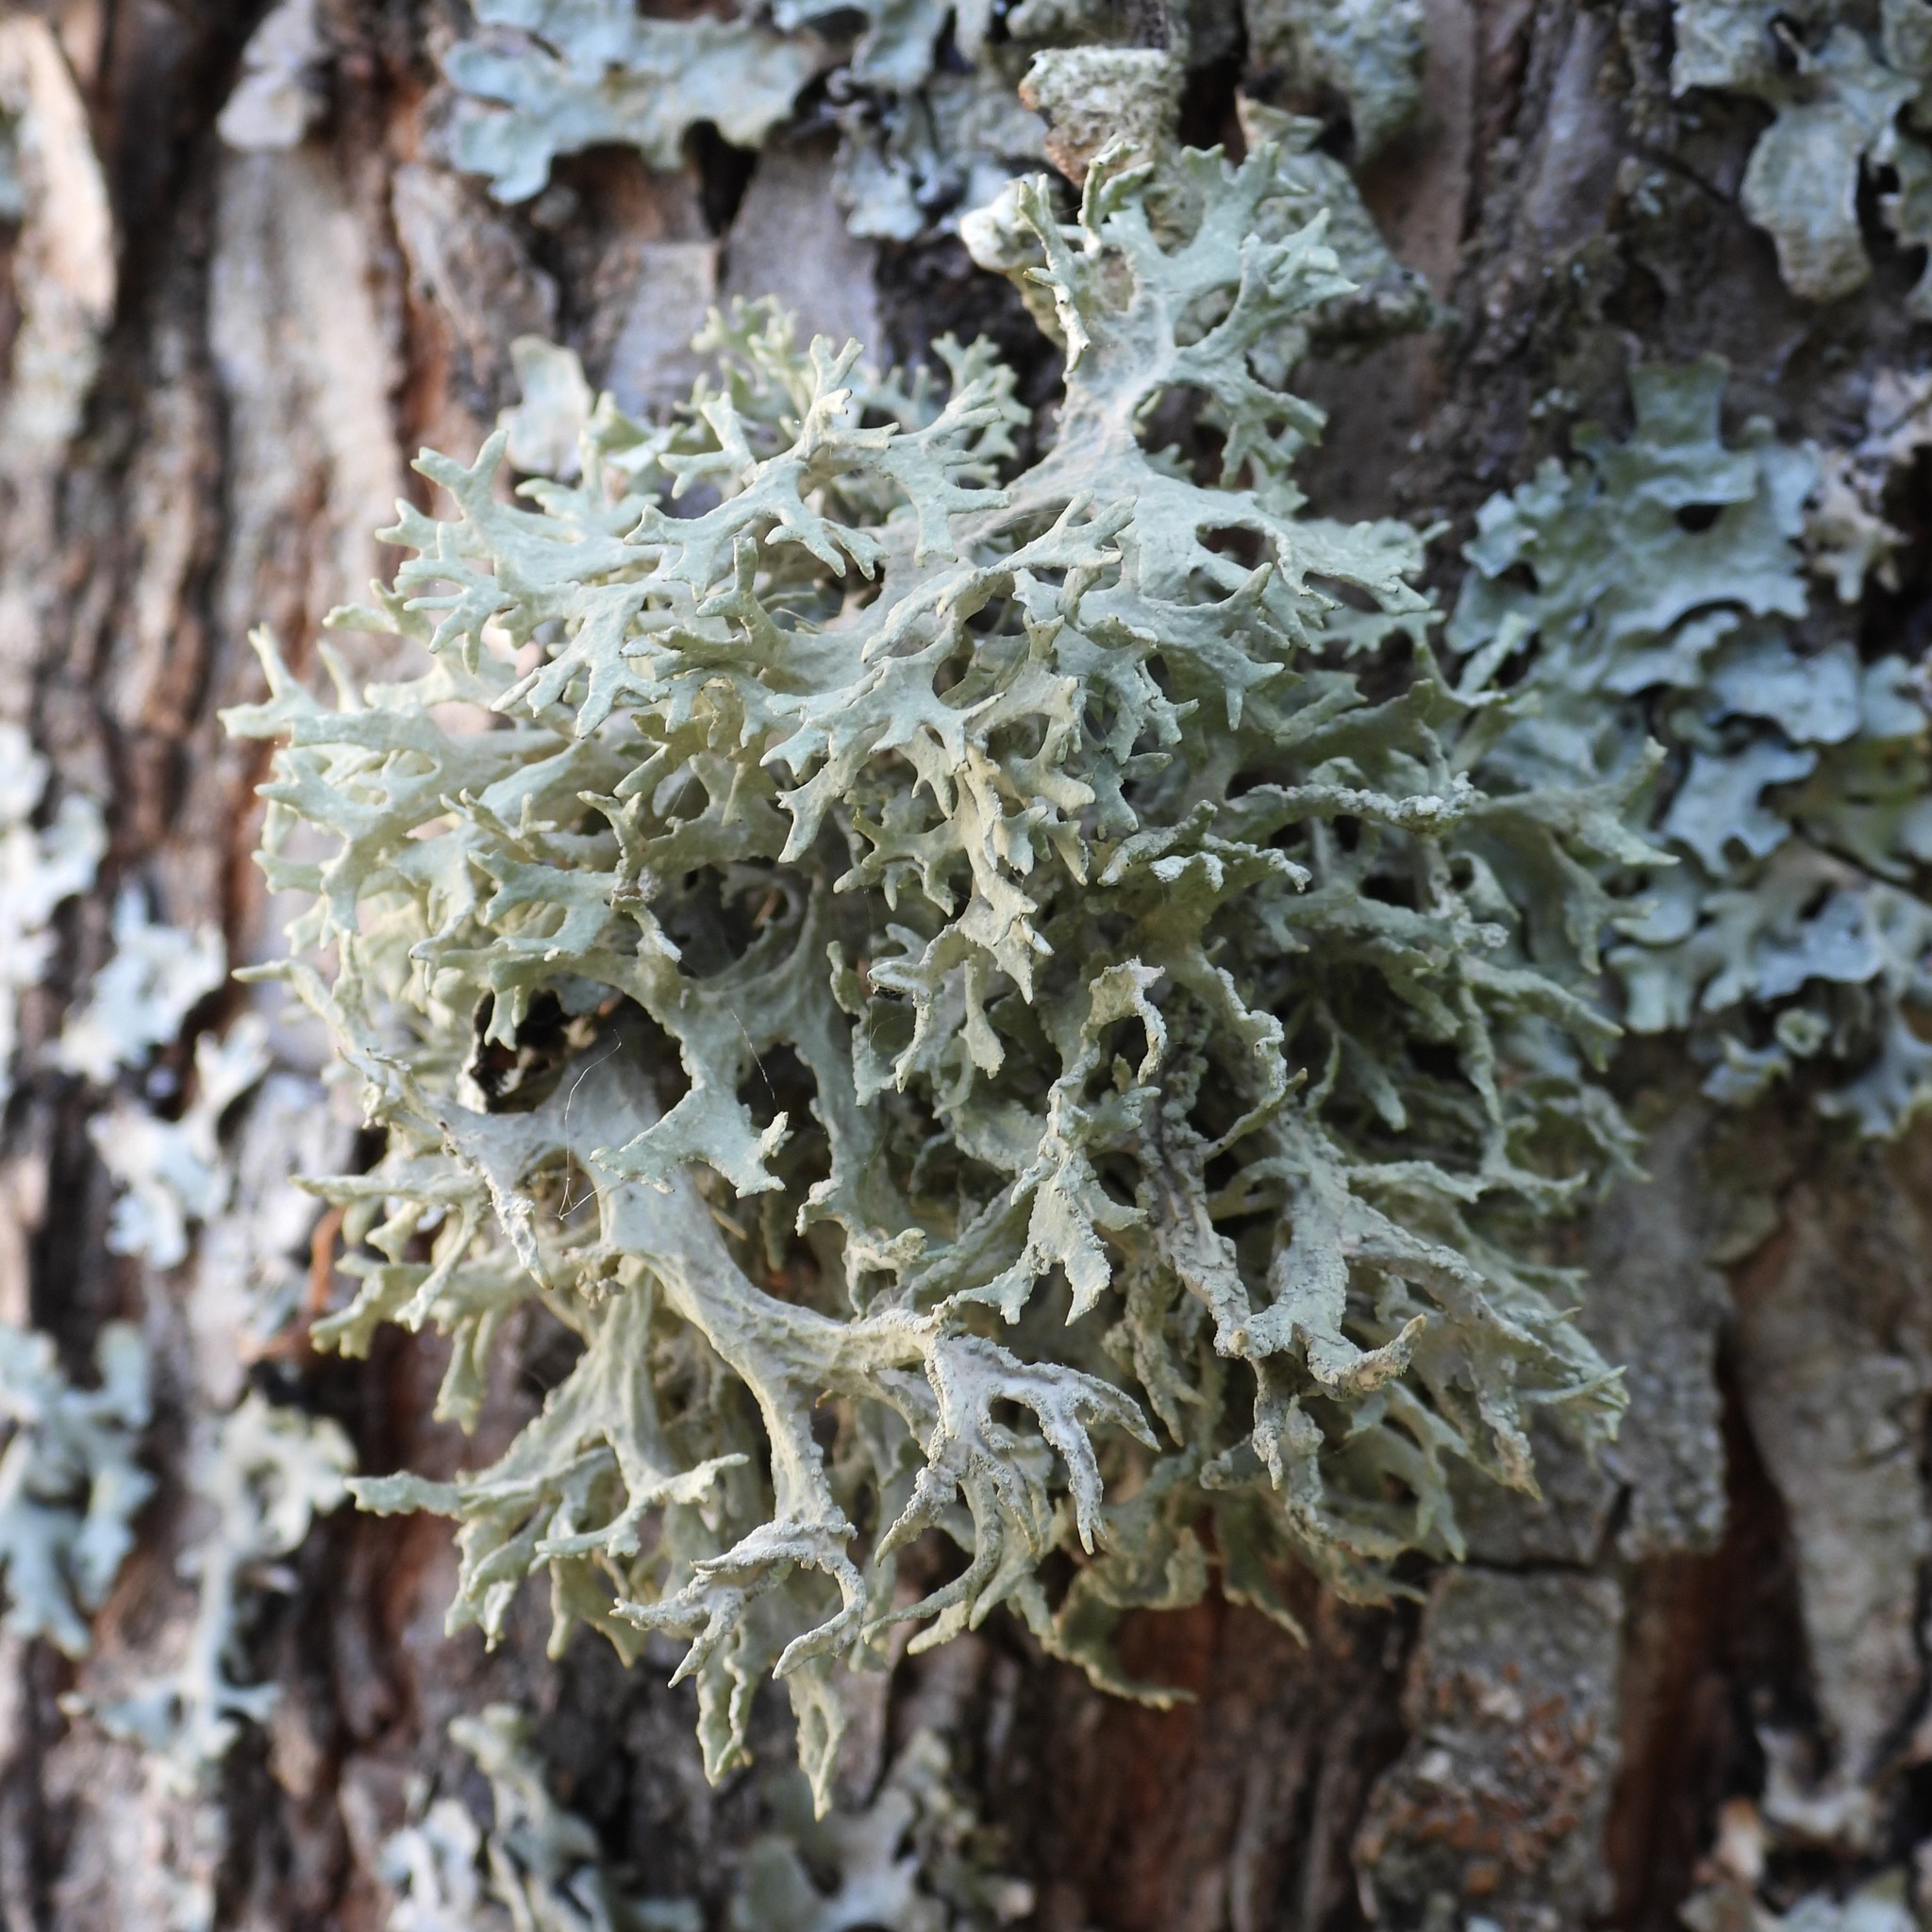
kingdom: Fungi
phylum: Ascomycota
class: Lecanoromycetes
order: Lecanorales
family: Parmeliaceae
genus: Evernia
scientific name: Evernia prunastri
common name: Oak moss
